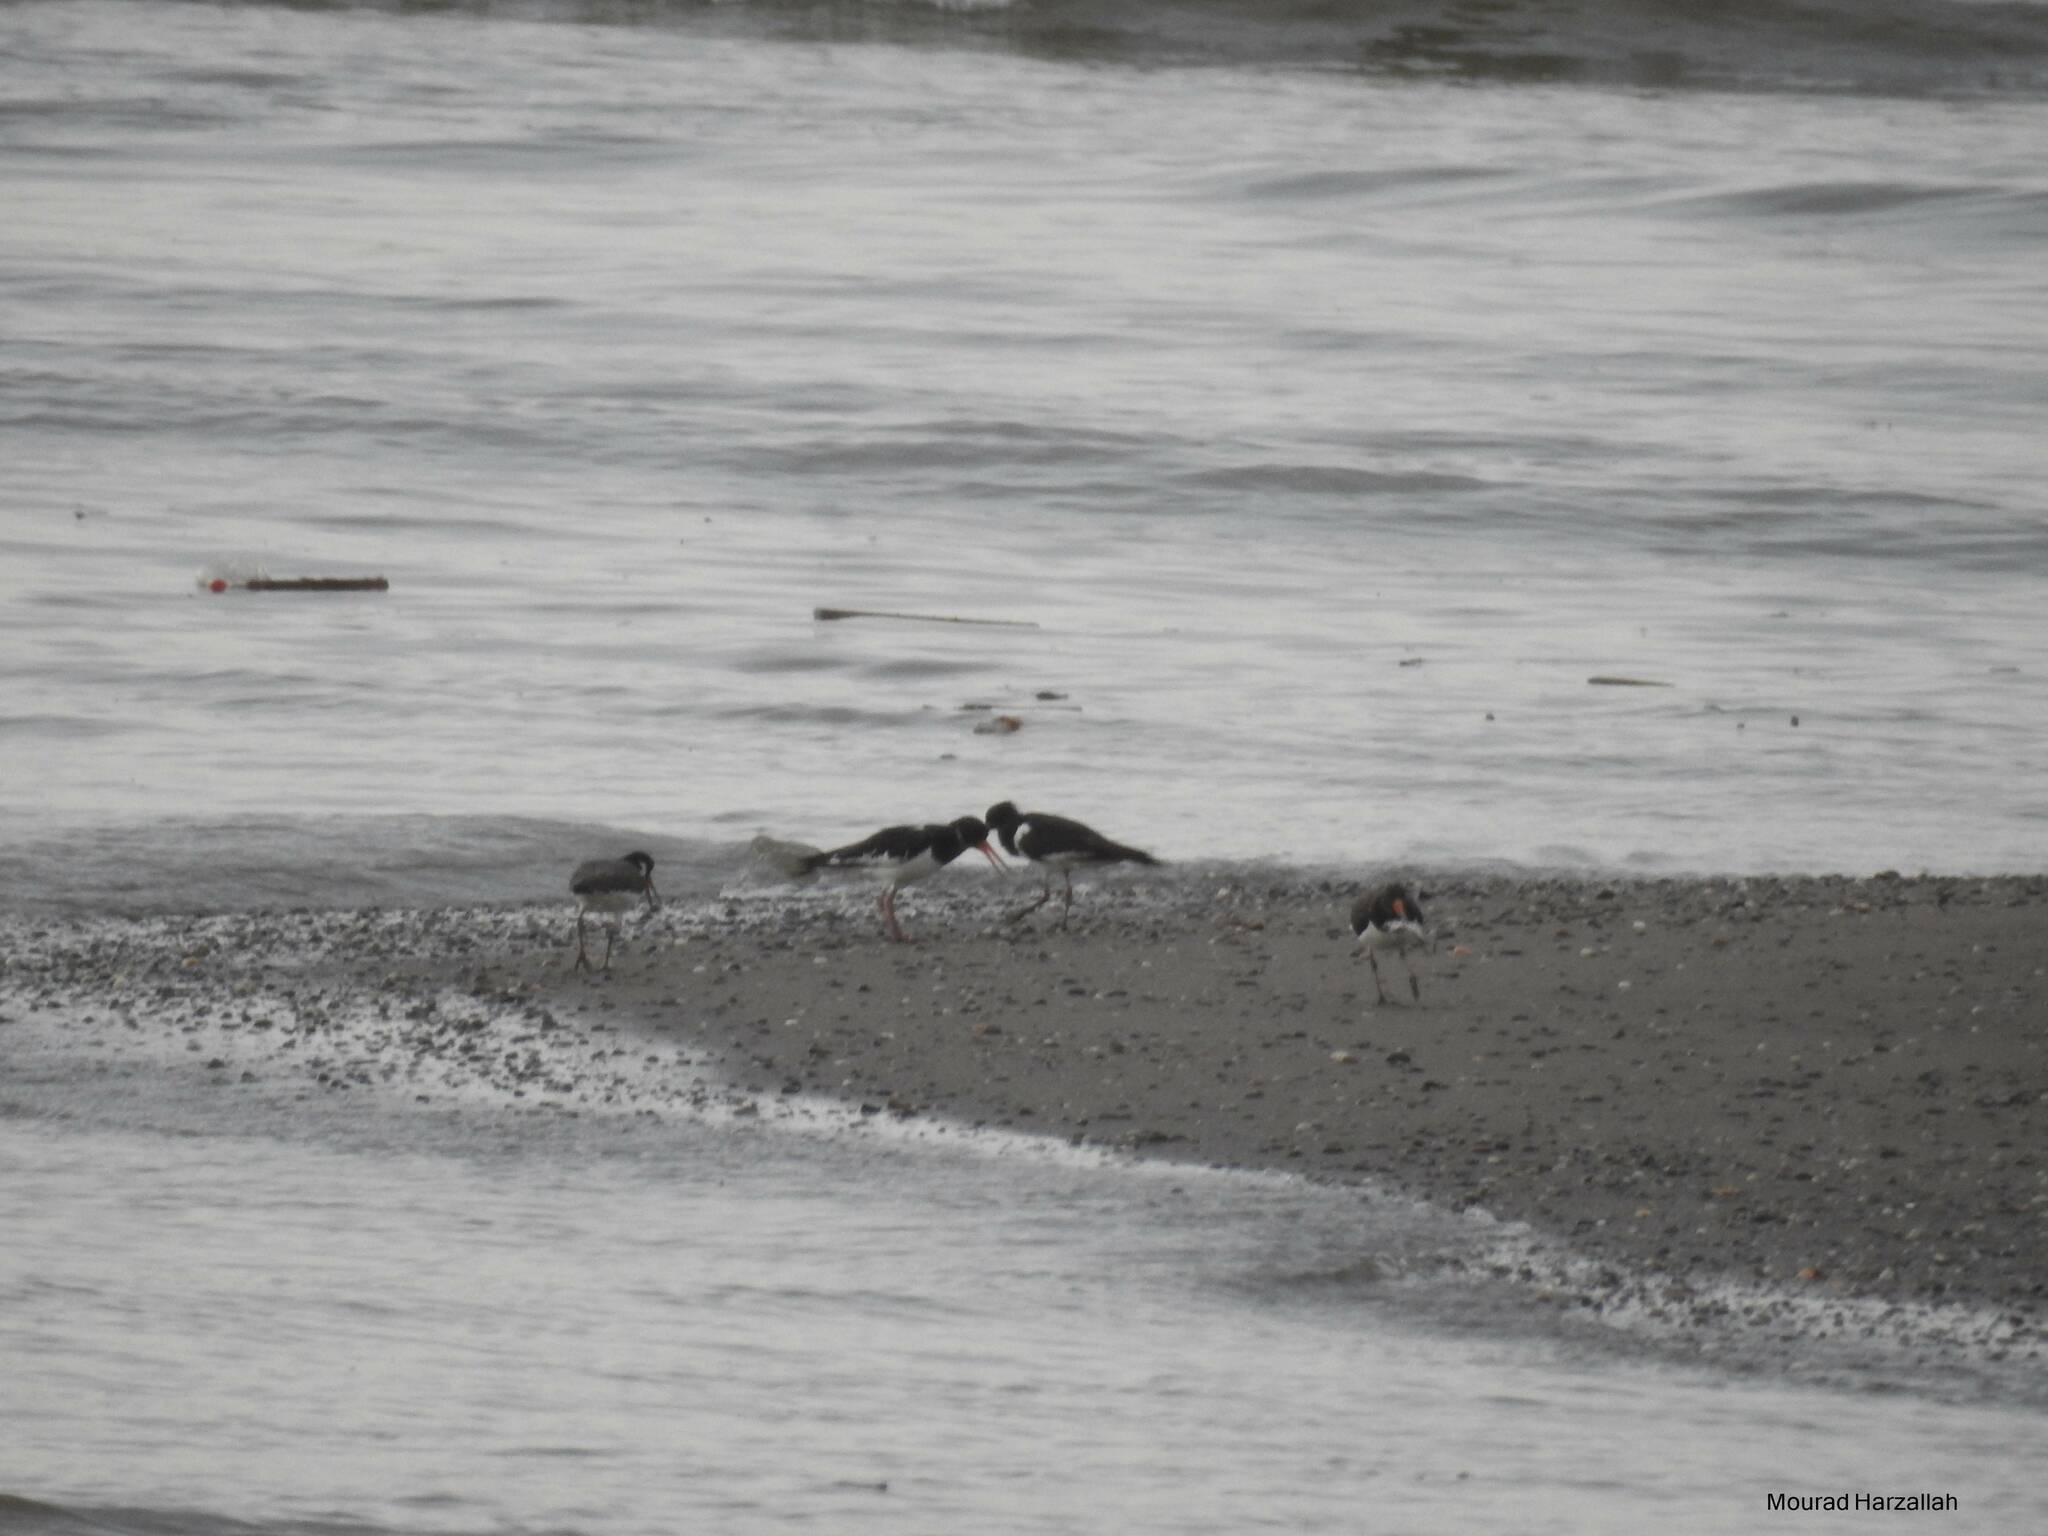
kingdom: Animalia
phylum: Chordata
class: Aves
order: Charadriiformes
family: Haematopodidae
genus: Haematopus
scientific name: Haematopus ostralegus
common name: Eurasian oystercatcher
